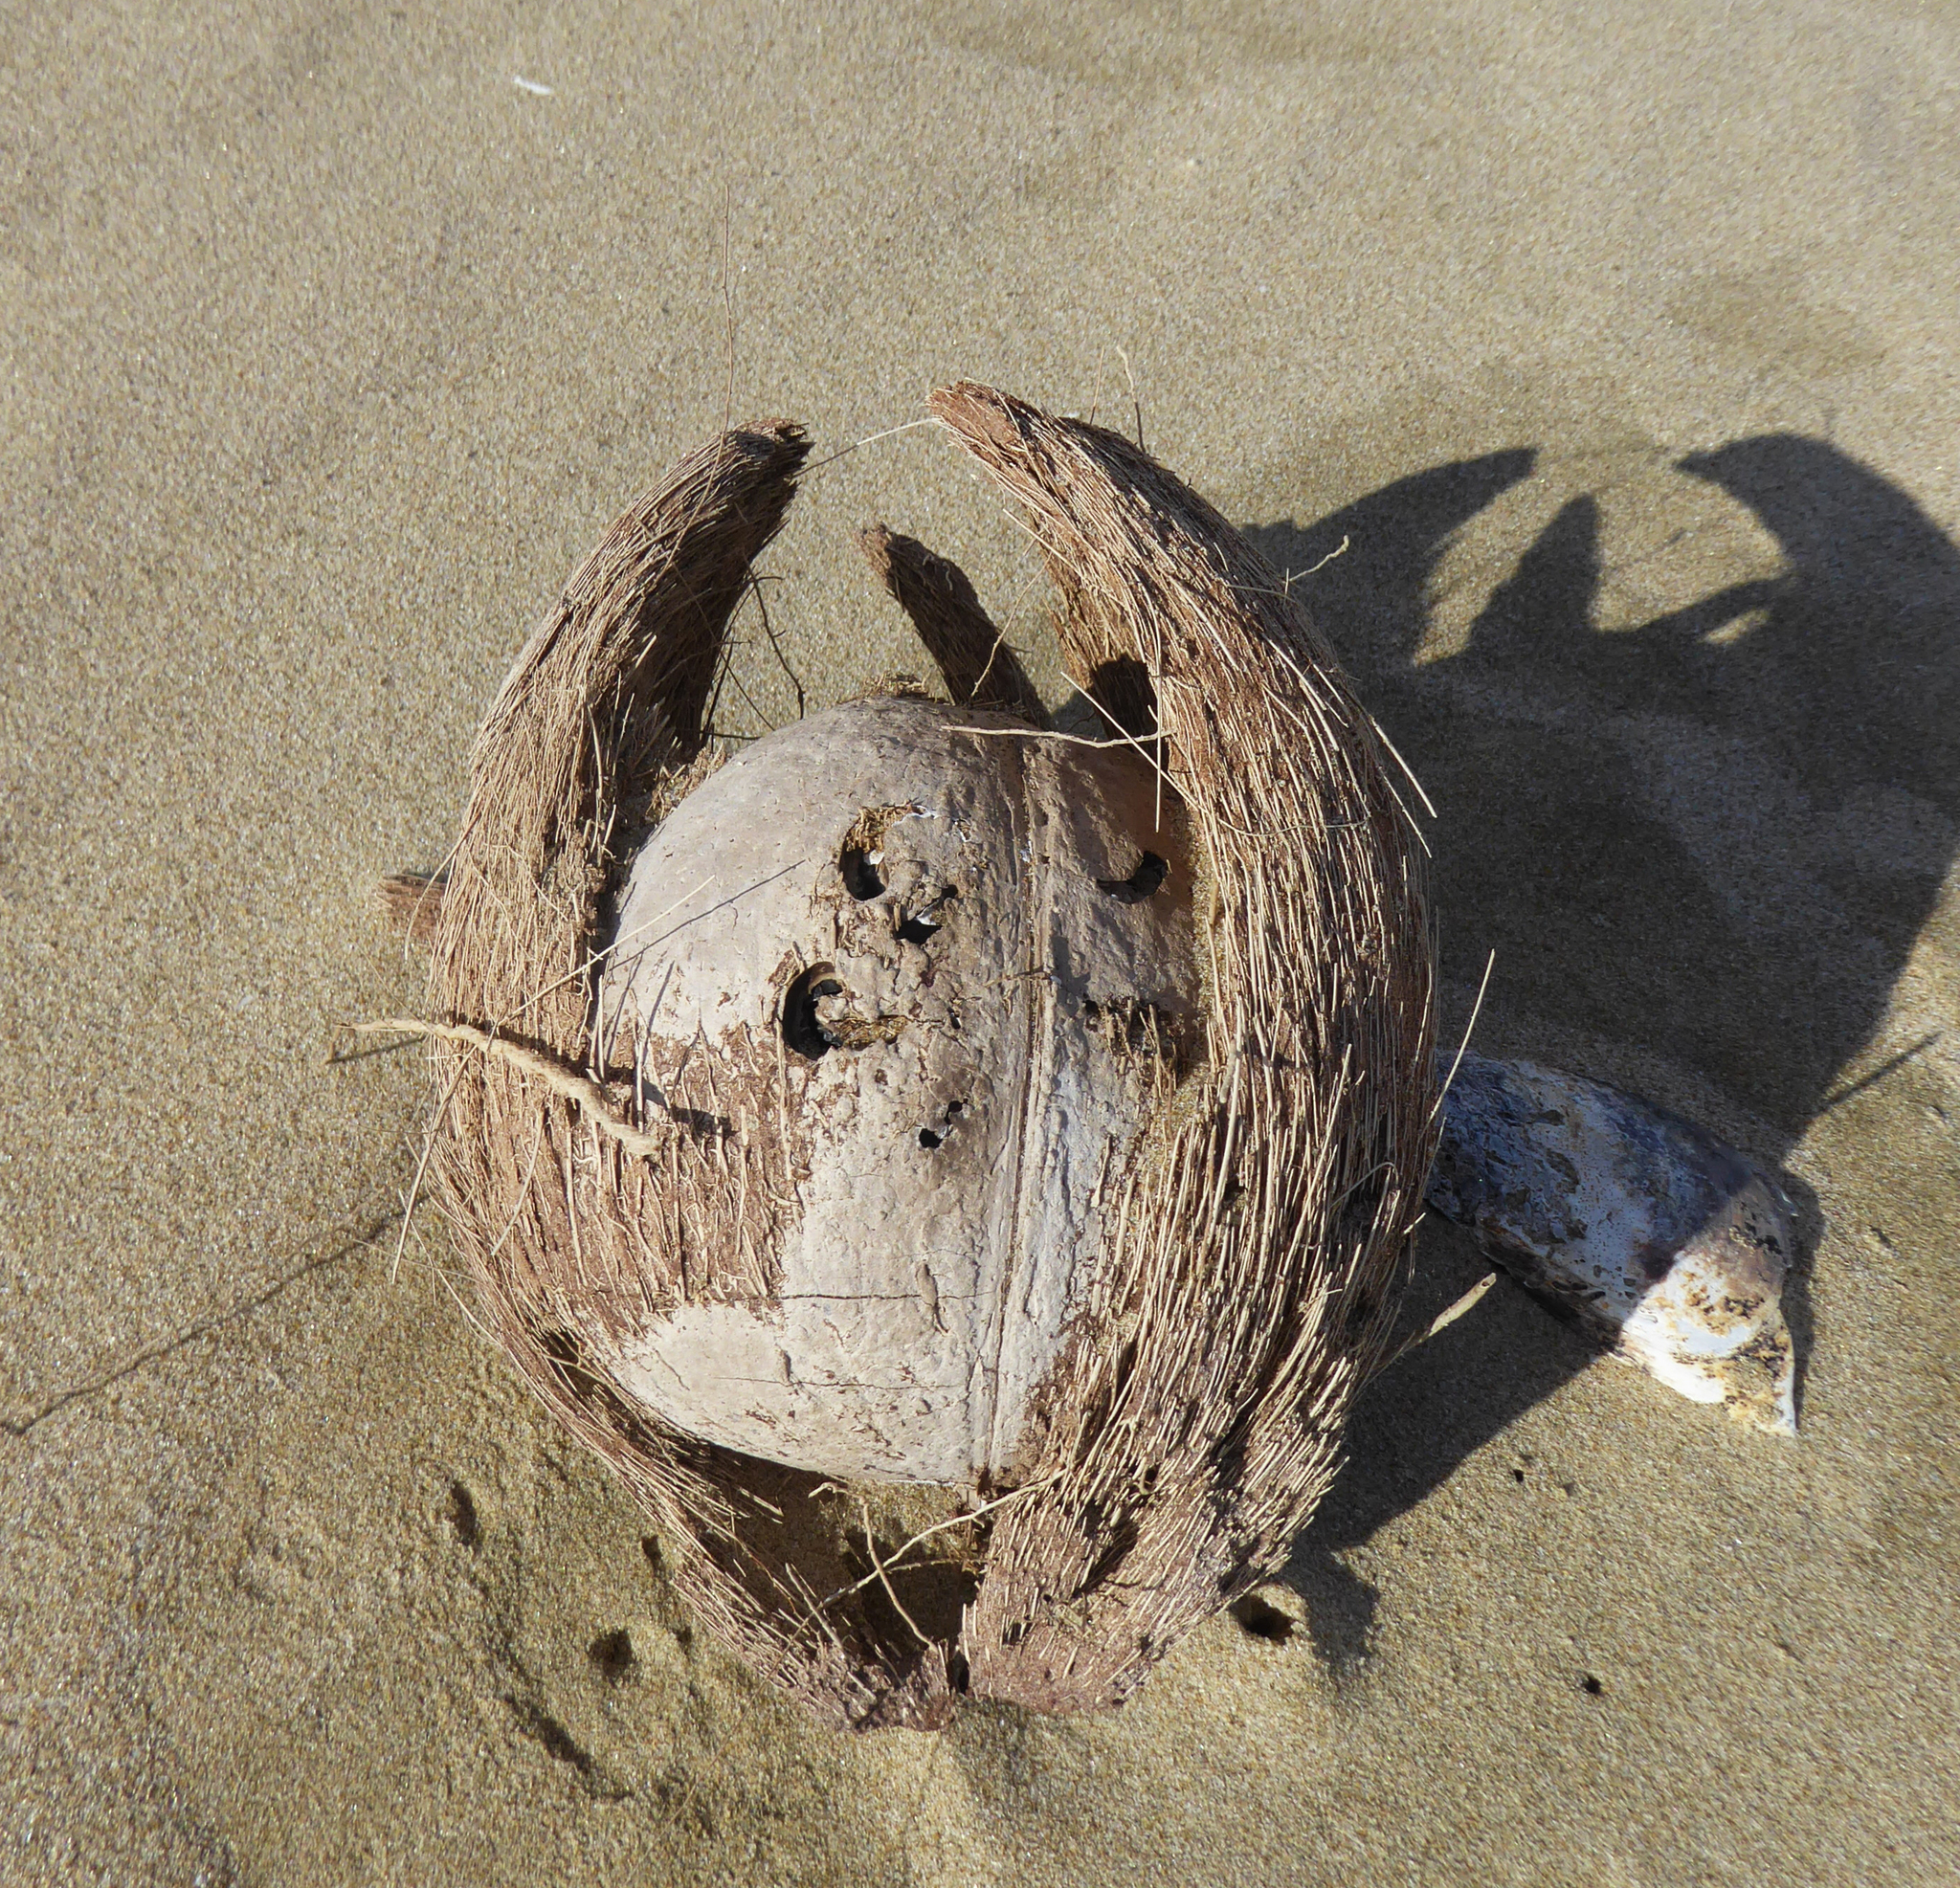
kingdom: Plantae
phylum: Tracheophyta
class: Liliopsida
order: Arecales
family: Arecaceae
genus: Cocos
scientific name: Cocos nucifera
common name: Coconut palm
